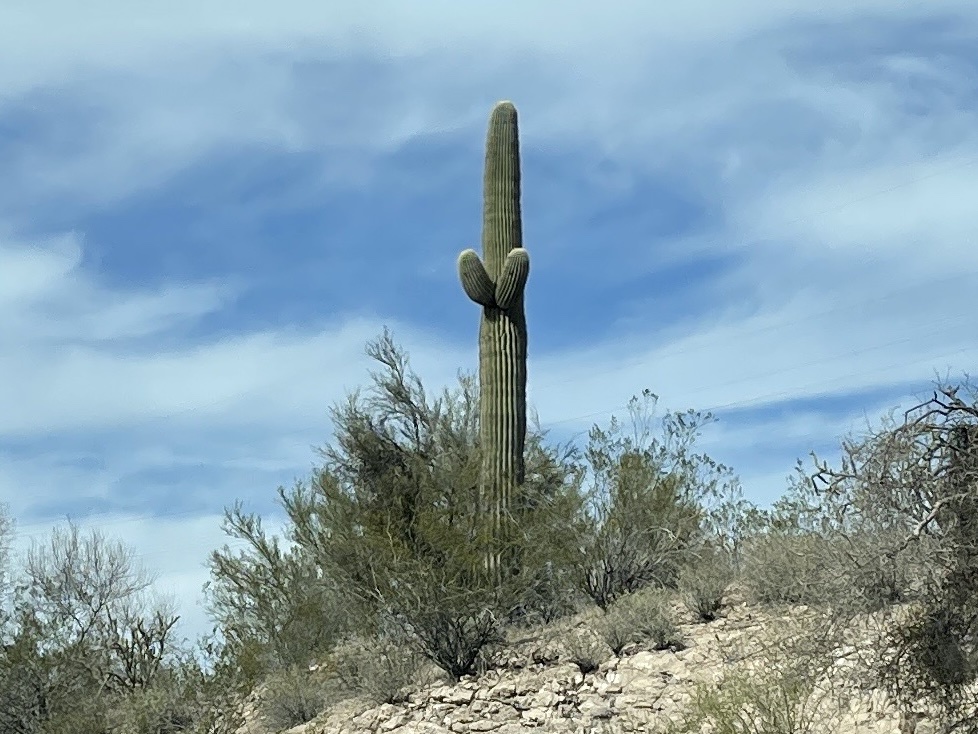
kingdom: Plantae
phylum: Tracheophyta
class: Magnoliopsida
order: Caryophyllales
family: Cactaceae
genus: Carnegiea
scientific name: Carnegiea gigantea
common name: Saguaro
